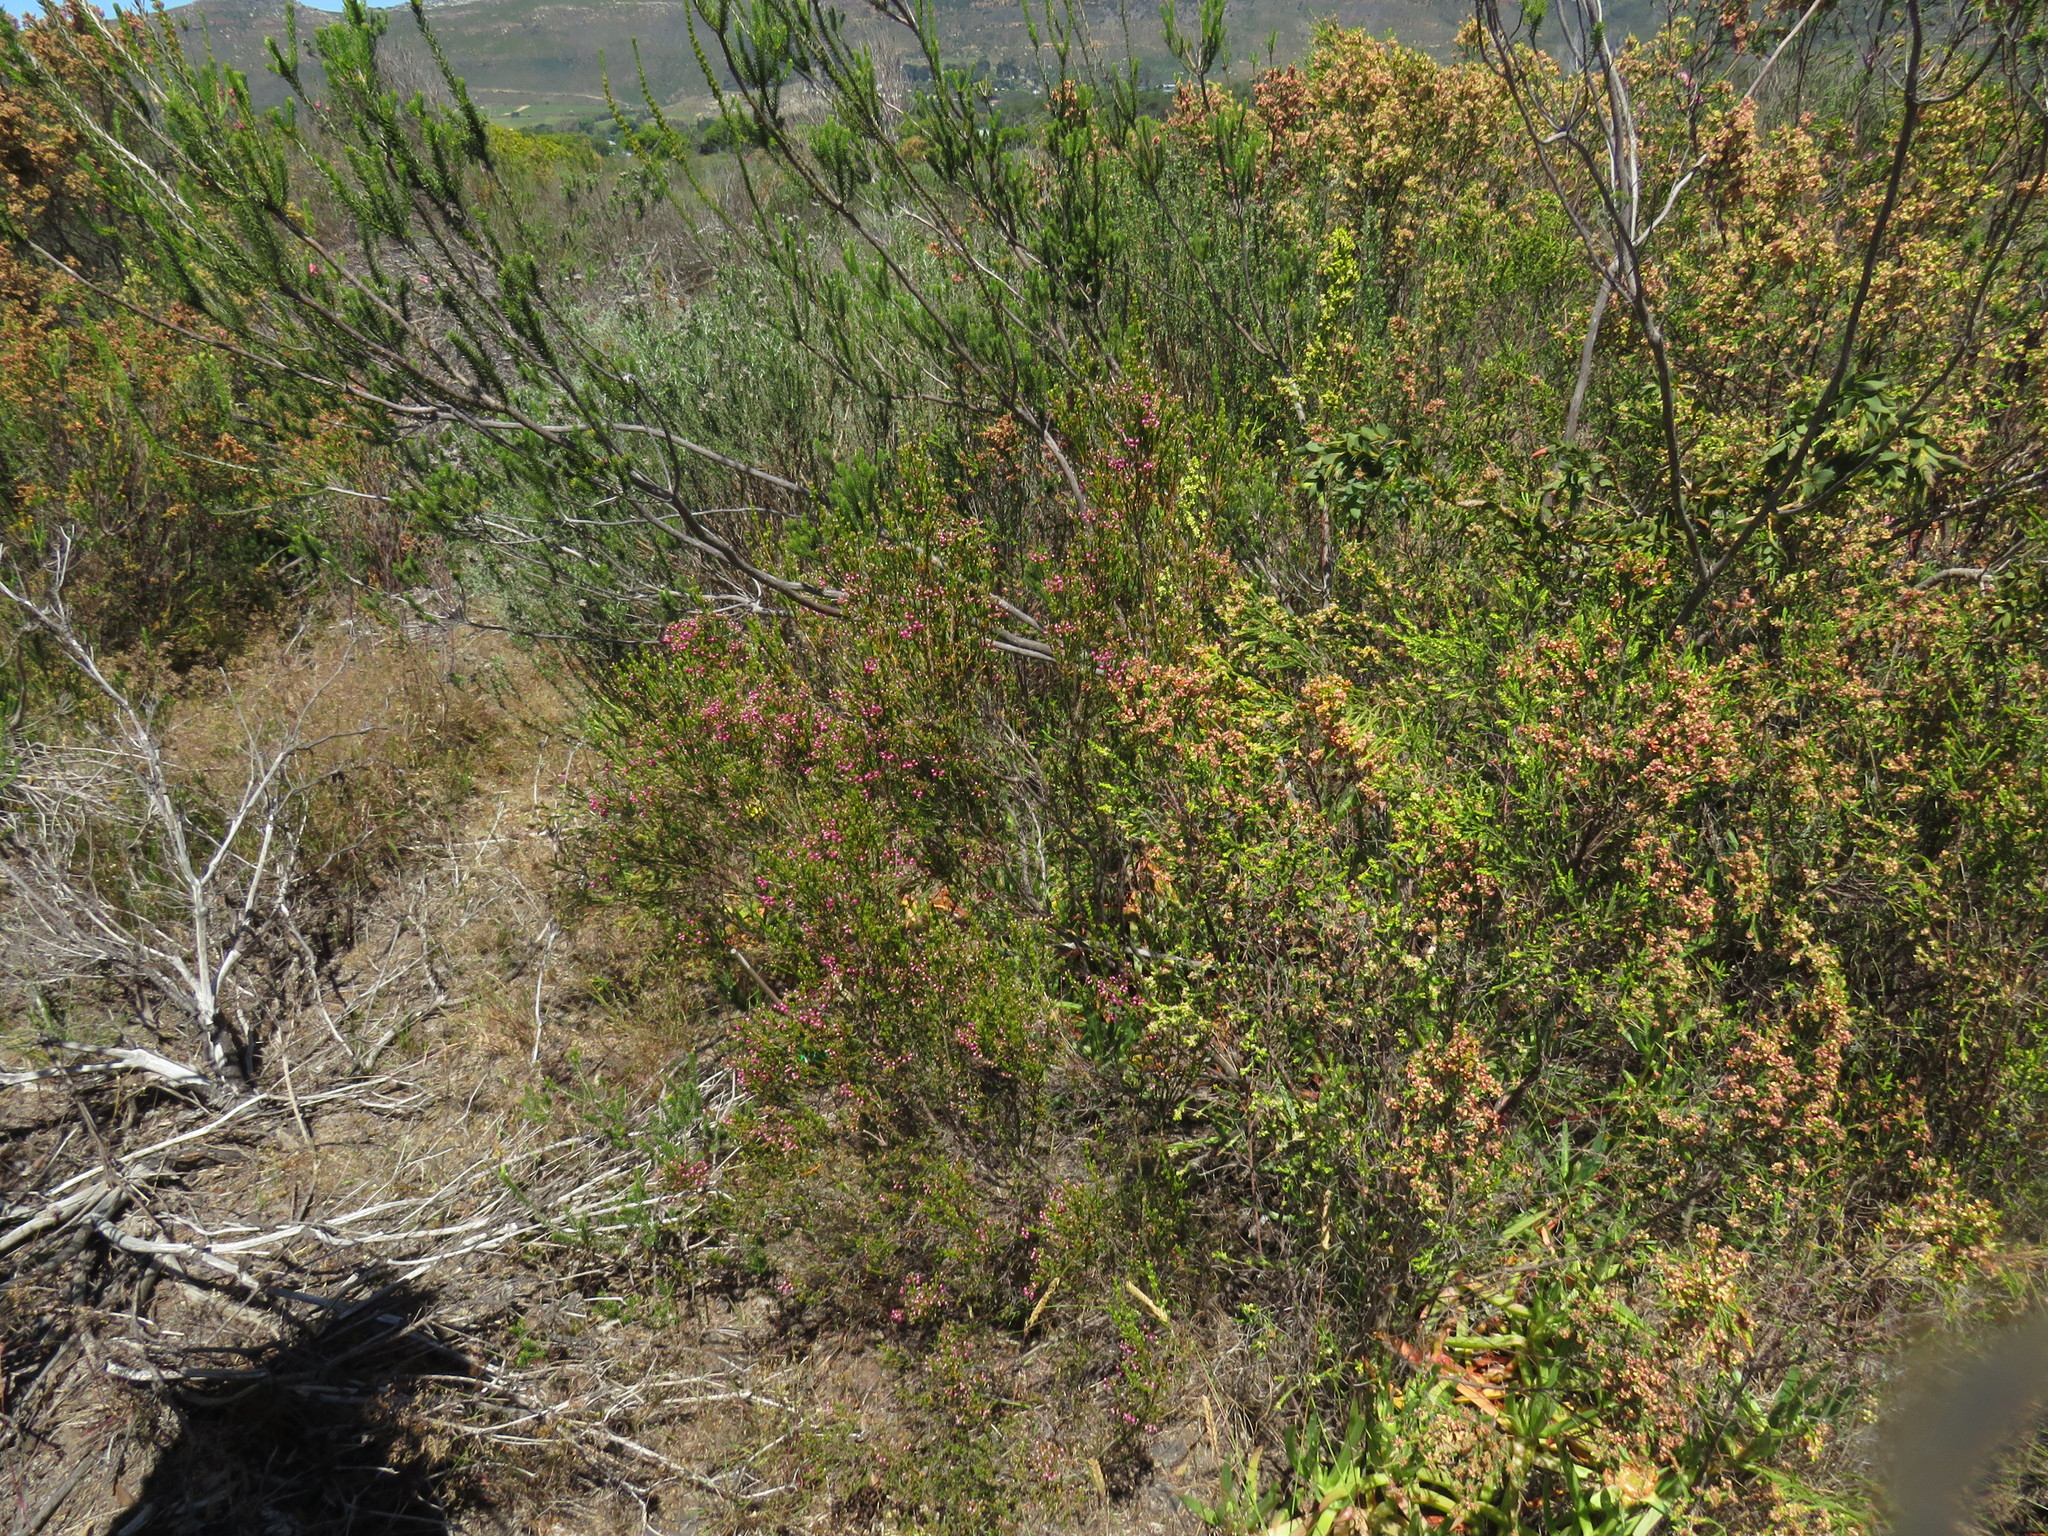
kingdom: Plantae
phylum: Tracheophyta
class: Magnoliopsida
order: Ericales
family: Ericaceae
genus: Erica
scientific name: Erica ferrea
